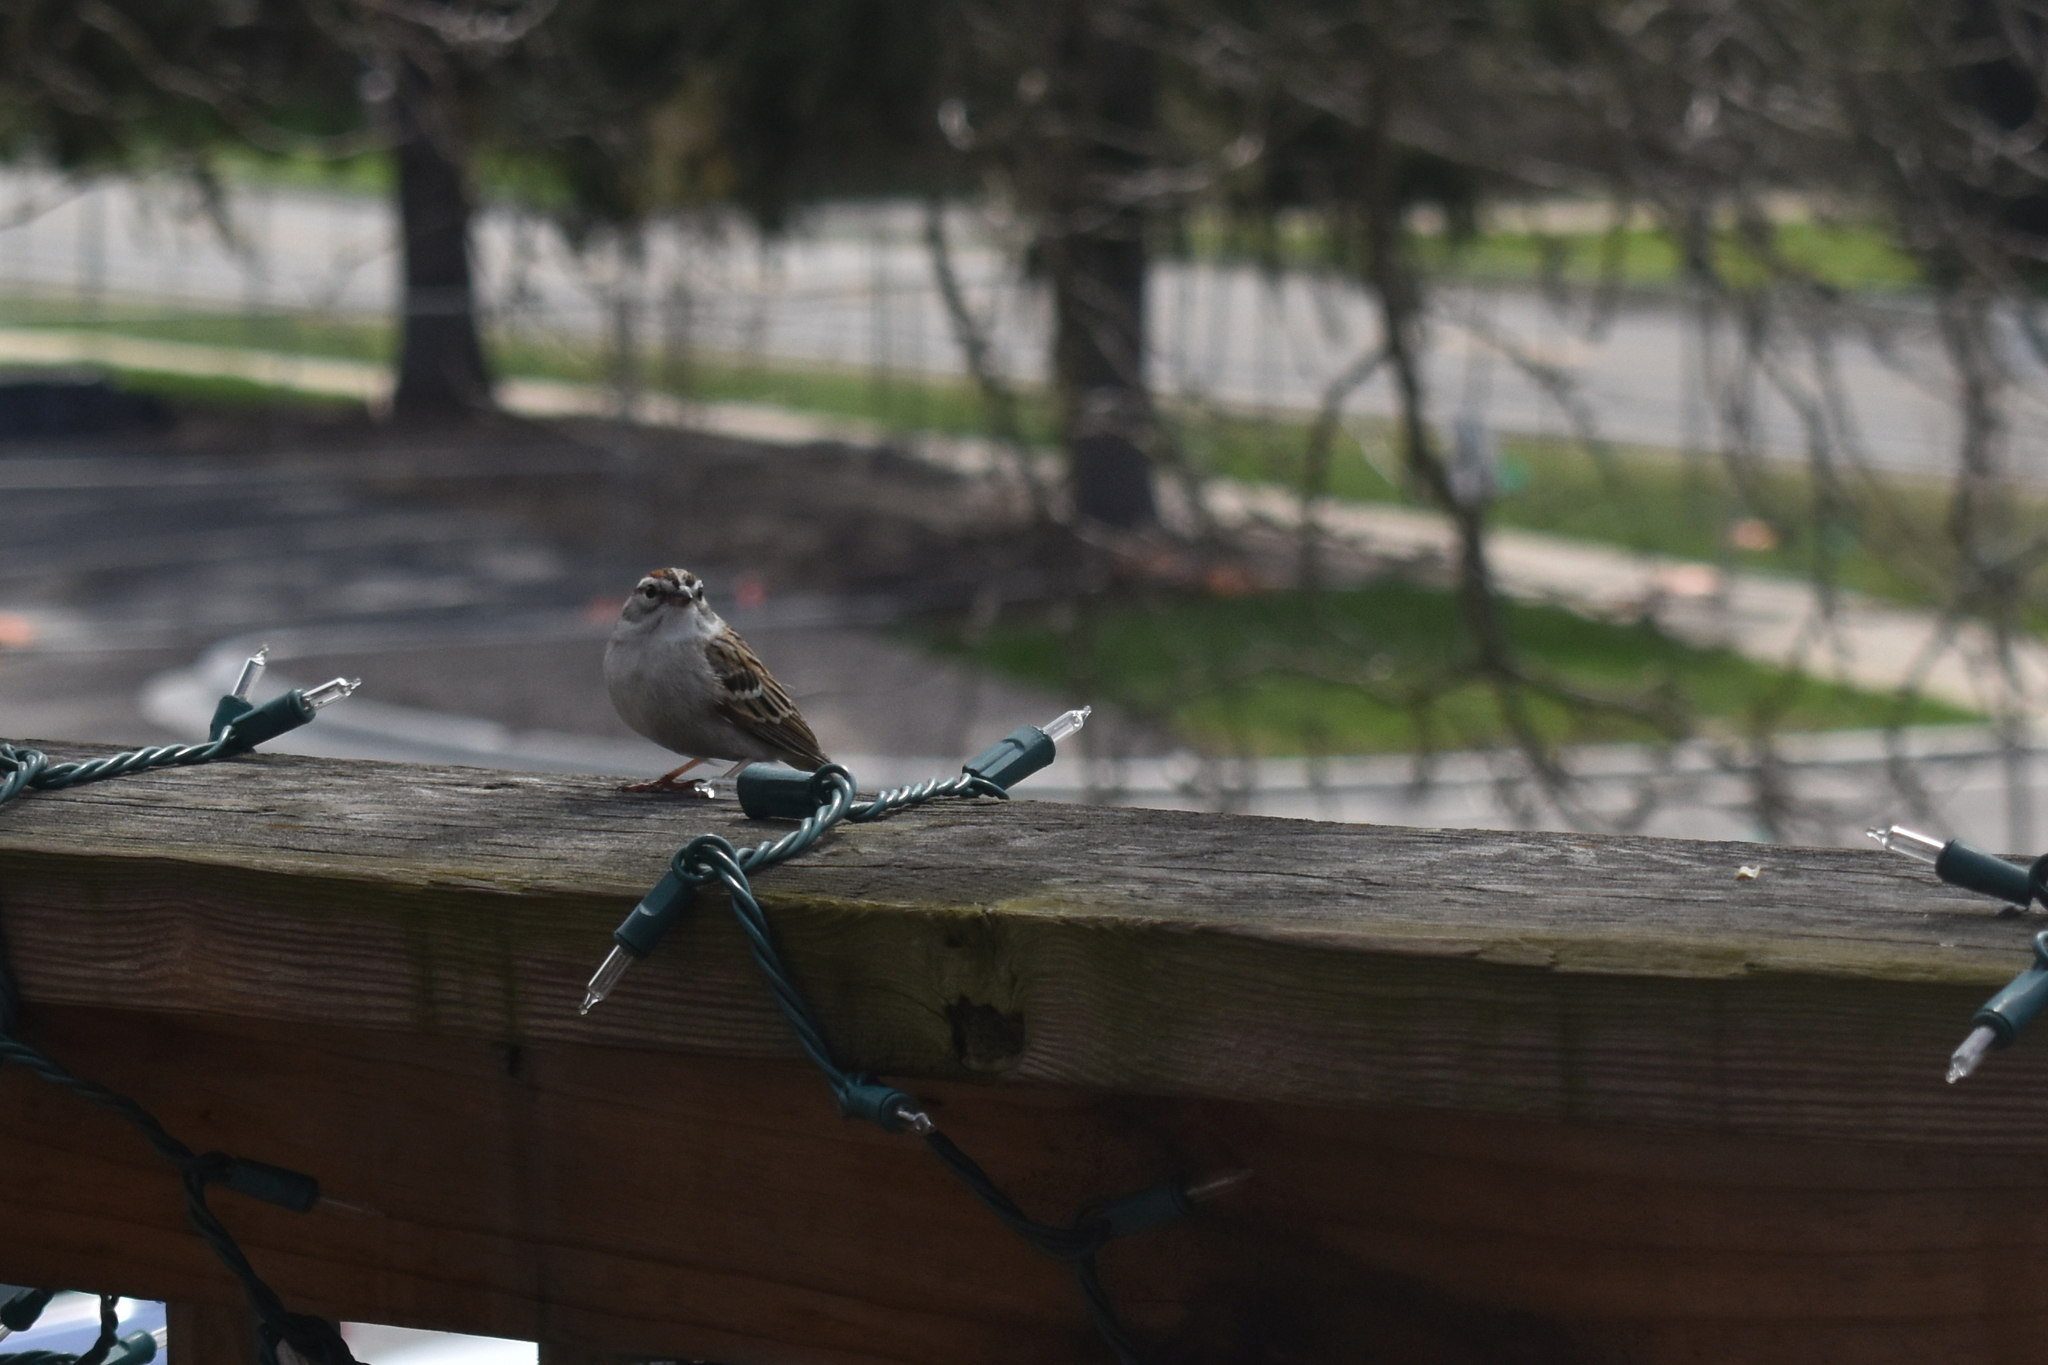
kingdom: Animalia
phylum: Chordata
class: Aves
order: Passeriformes
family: Passerellidae
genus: Spizella
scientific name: Spizella passerina
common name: Chipping sparrow
